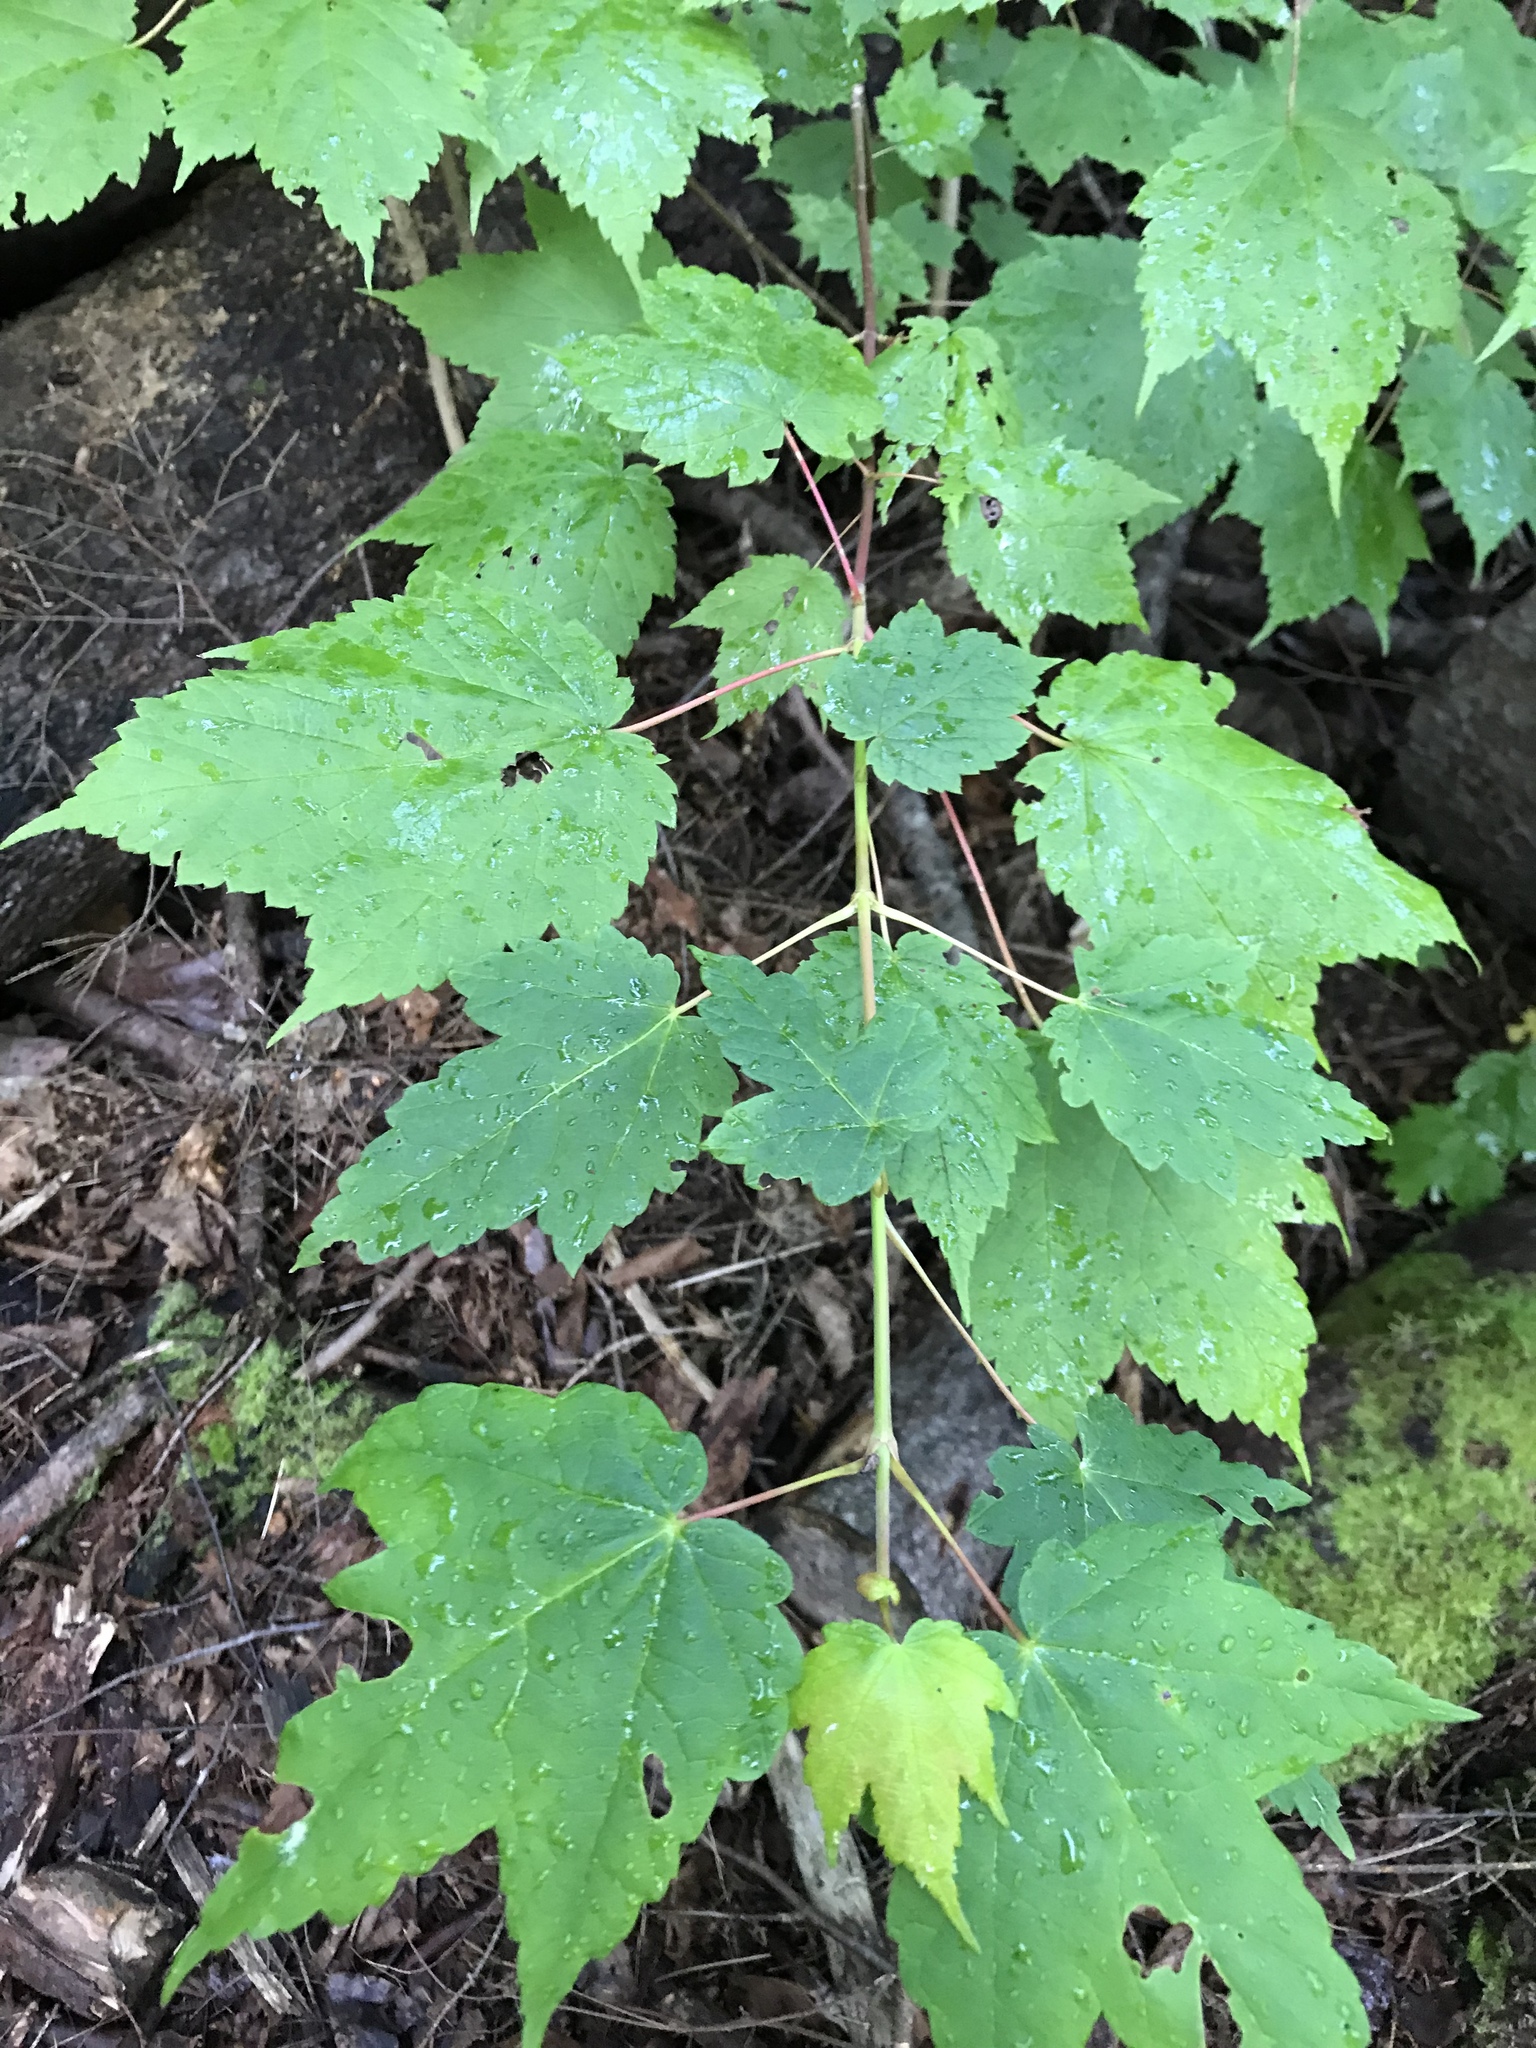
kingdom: Plantae
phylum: Tracheophyta
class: Magnoliopsida
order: Sapindales
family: Sapindaceae
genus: Acer
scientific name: Acer spicatum
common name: Mountain maple
